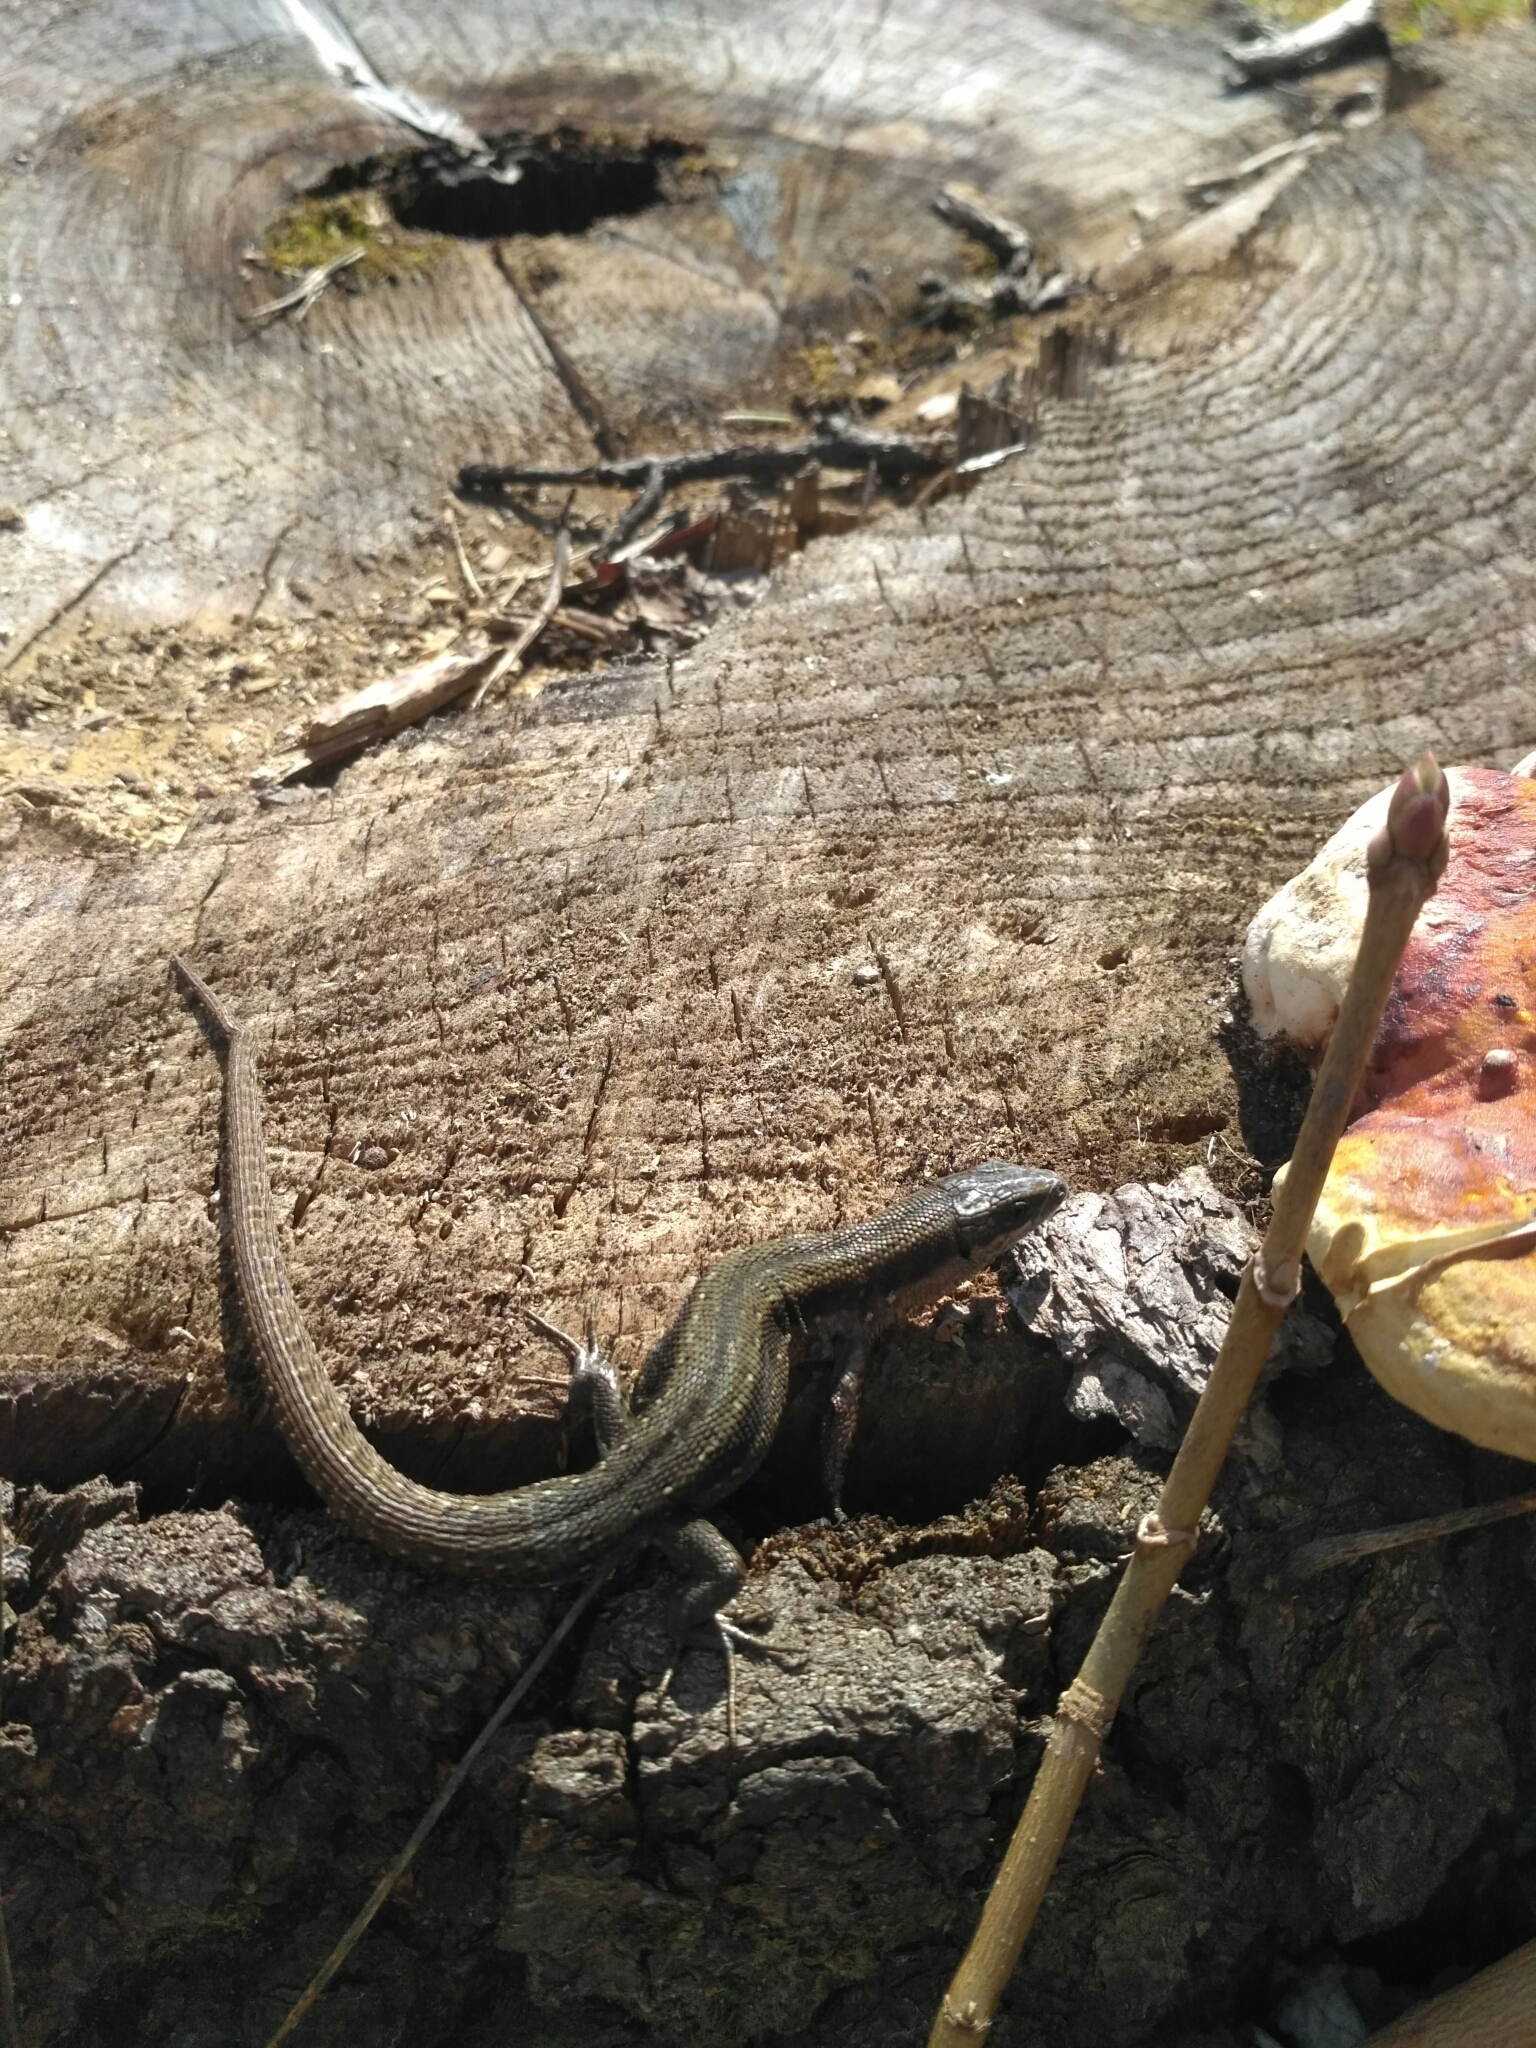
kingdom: Animalia
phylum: Chordata
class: Squamata
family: Lacertidae
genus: Zootoca
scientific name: Zootoca vivipara
